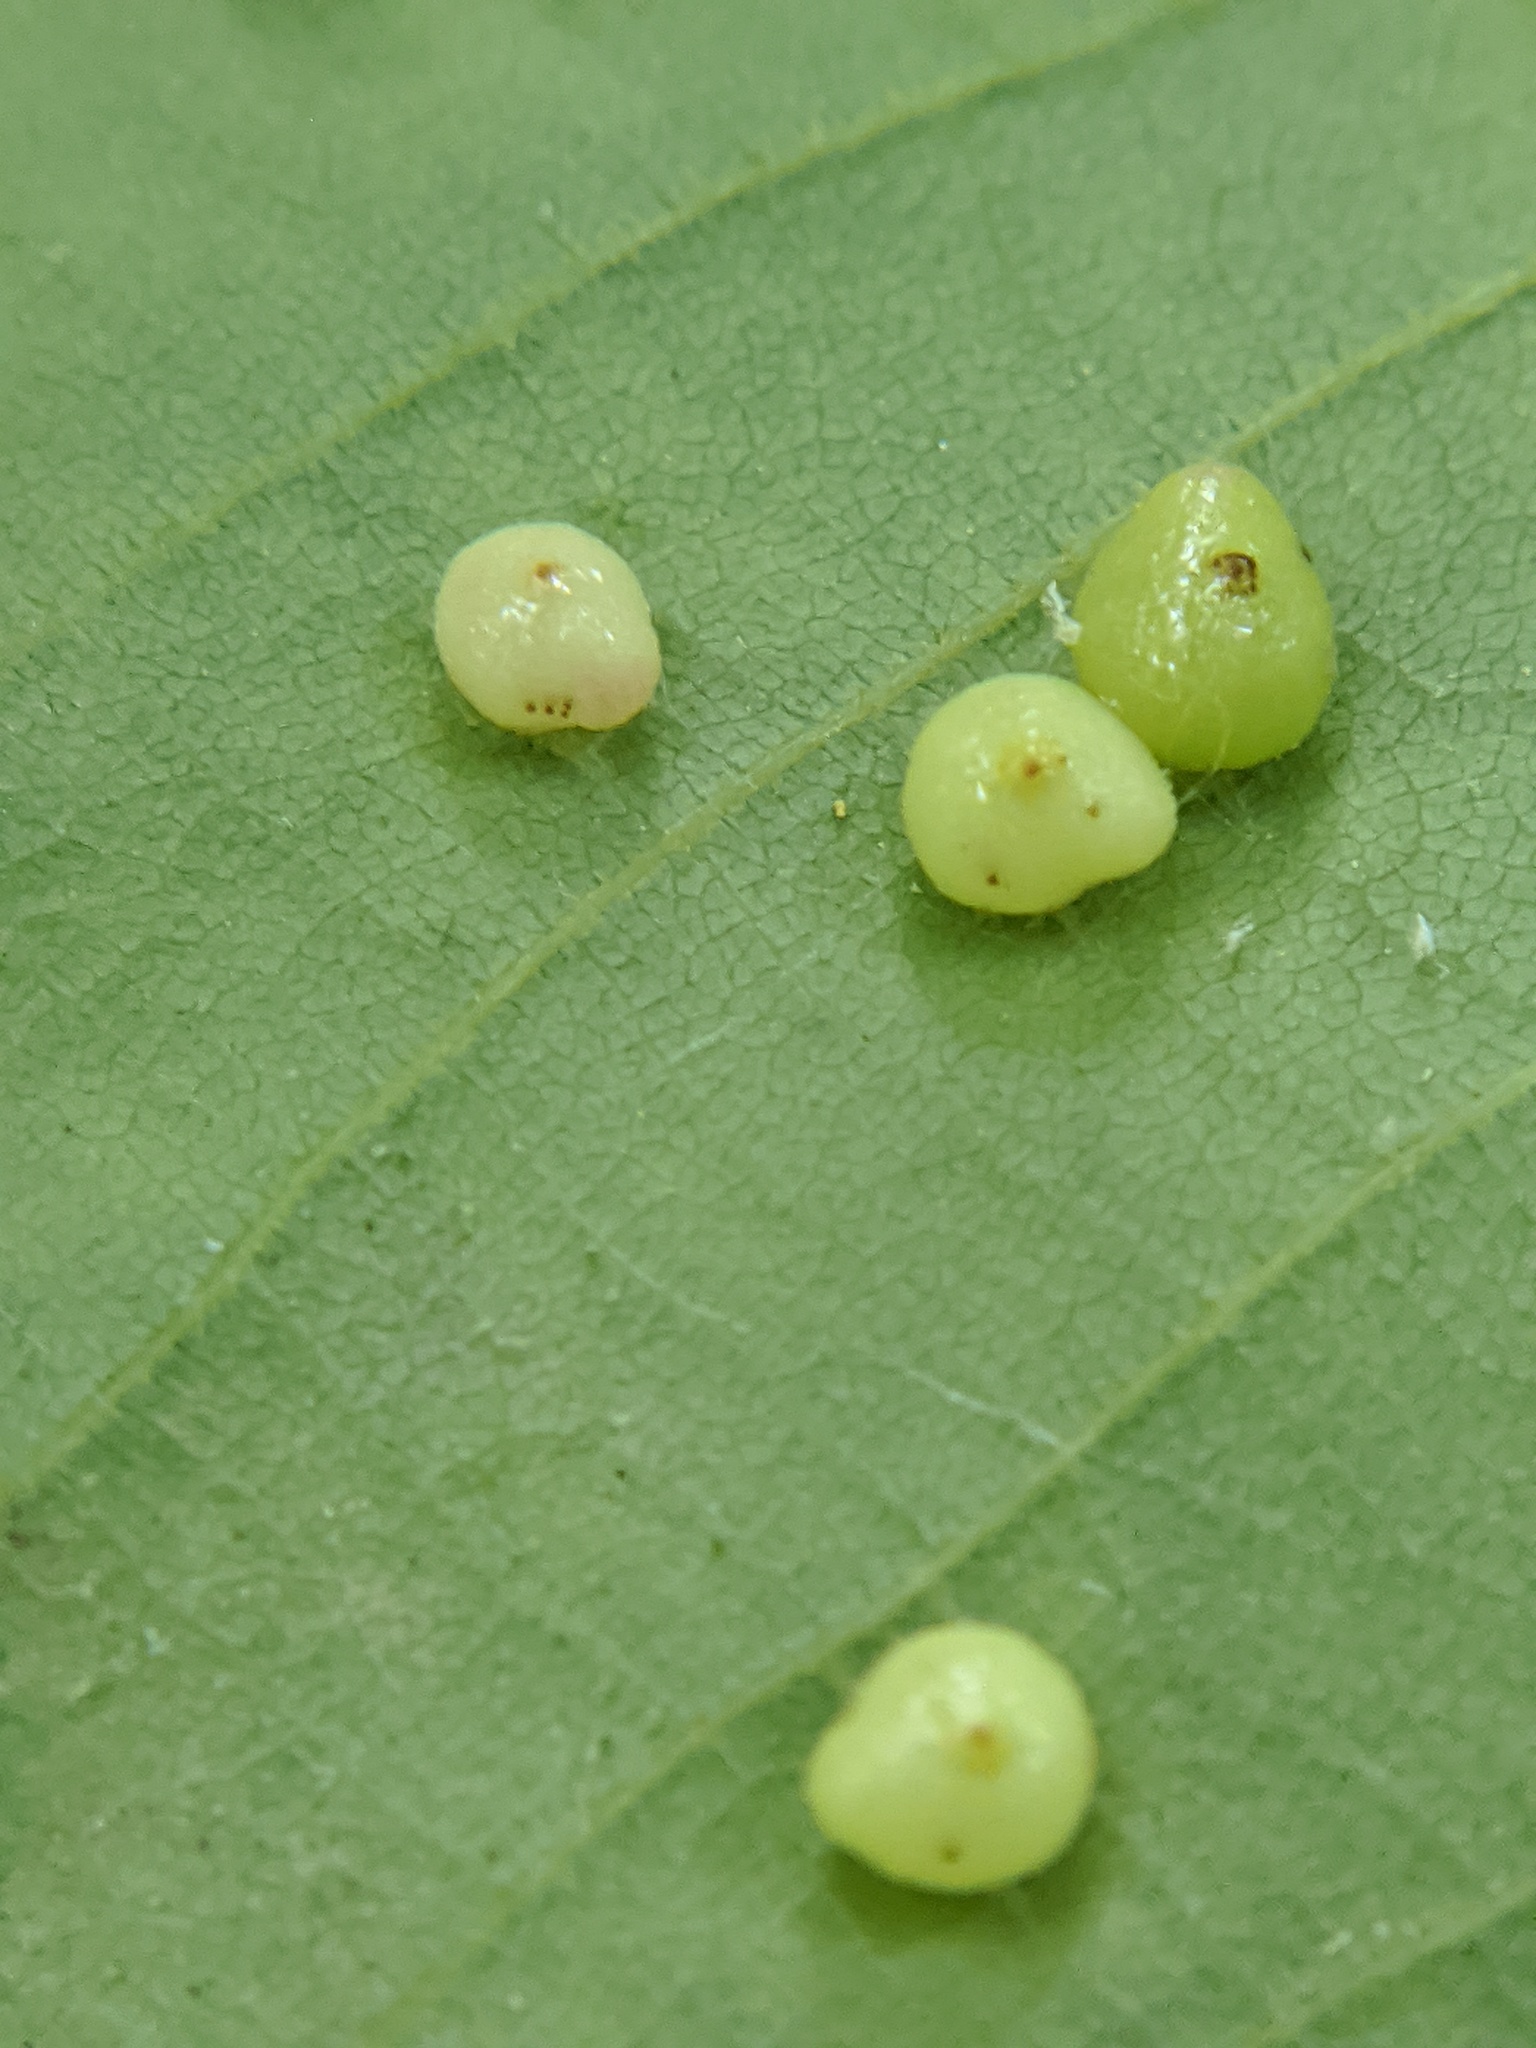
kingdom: Animalia
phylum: Arthropoda
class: Insecta
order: Diptera
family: Cecidomyiidae
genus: Caryomyia
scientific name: Caryomyia caryae
